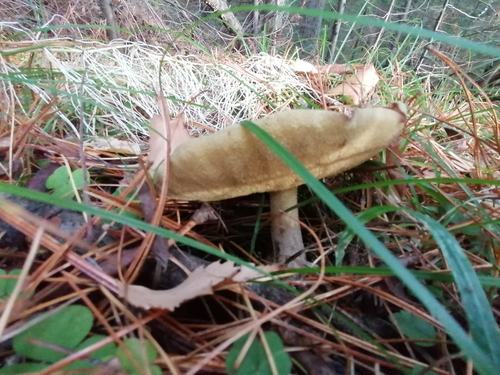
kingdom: Fungi
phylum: Basidiomycota
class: Agaricomycetes
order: Boletales
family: Suillaceae
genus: Suillus
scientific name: Suillus placidus
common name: Slippery white bolete
